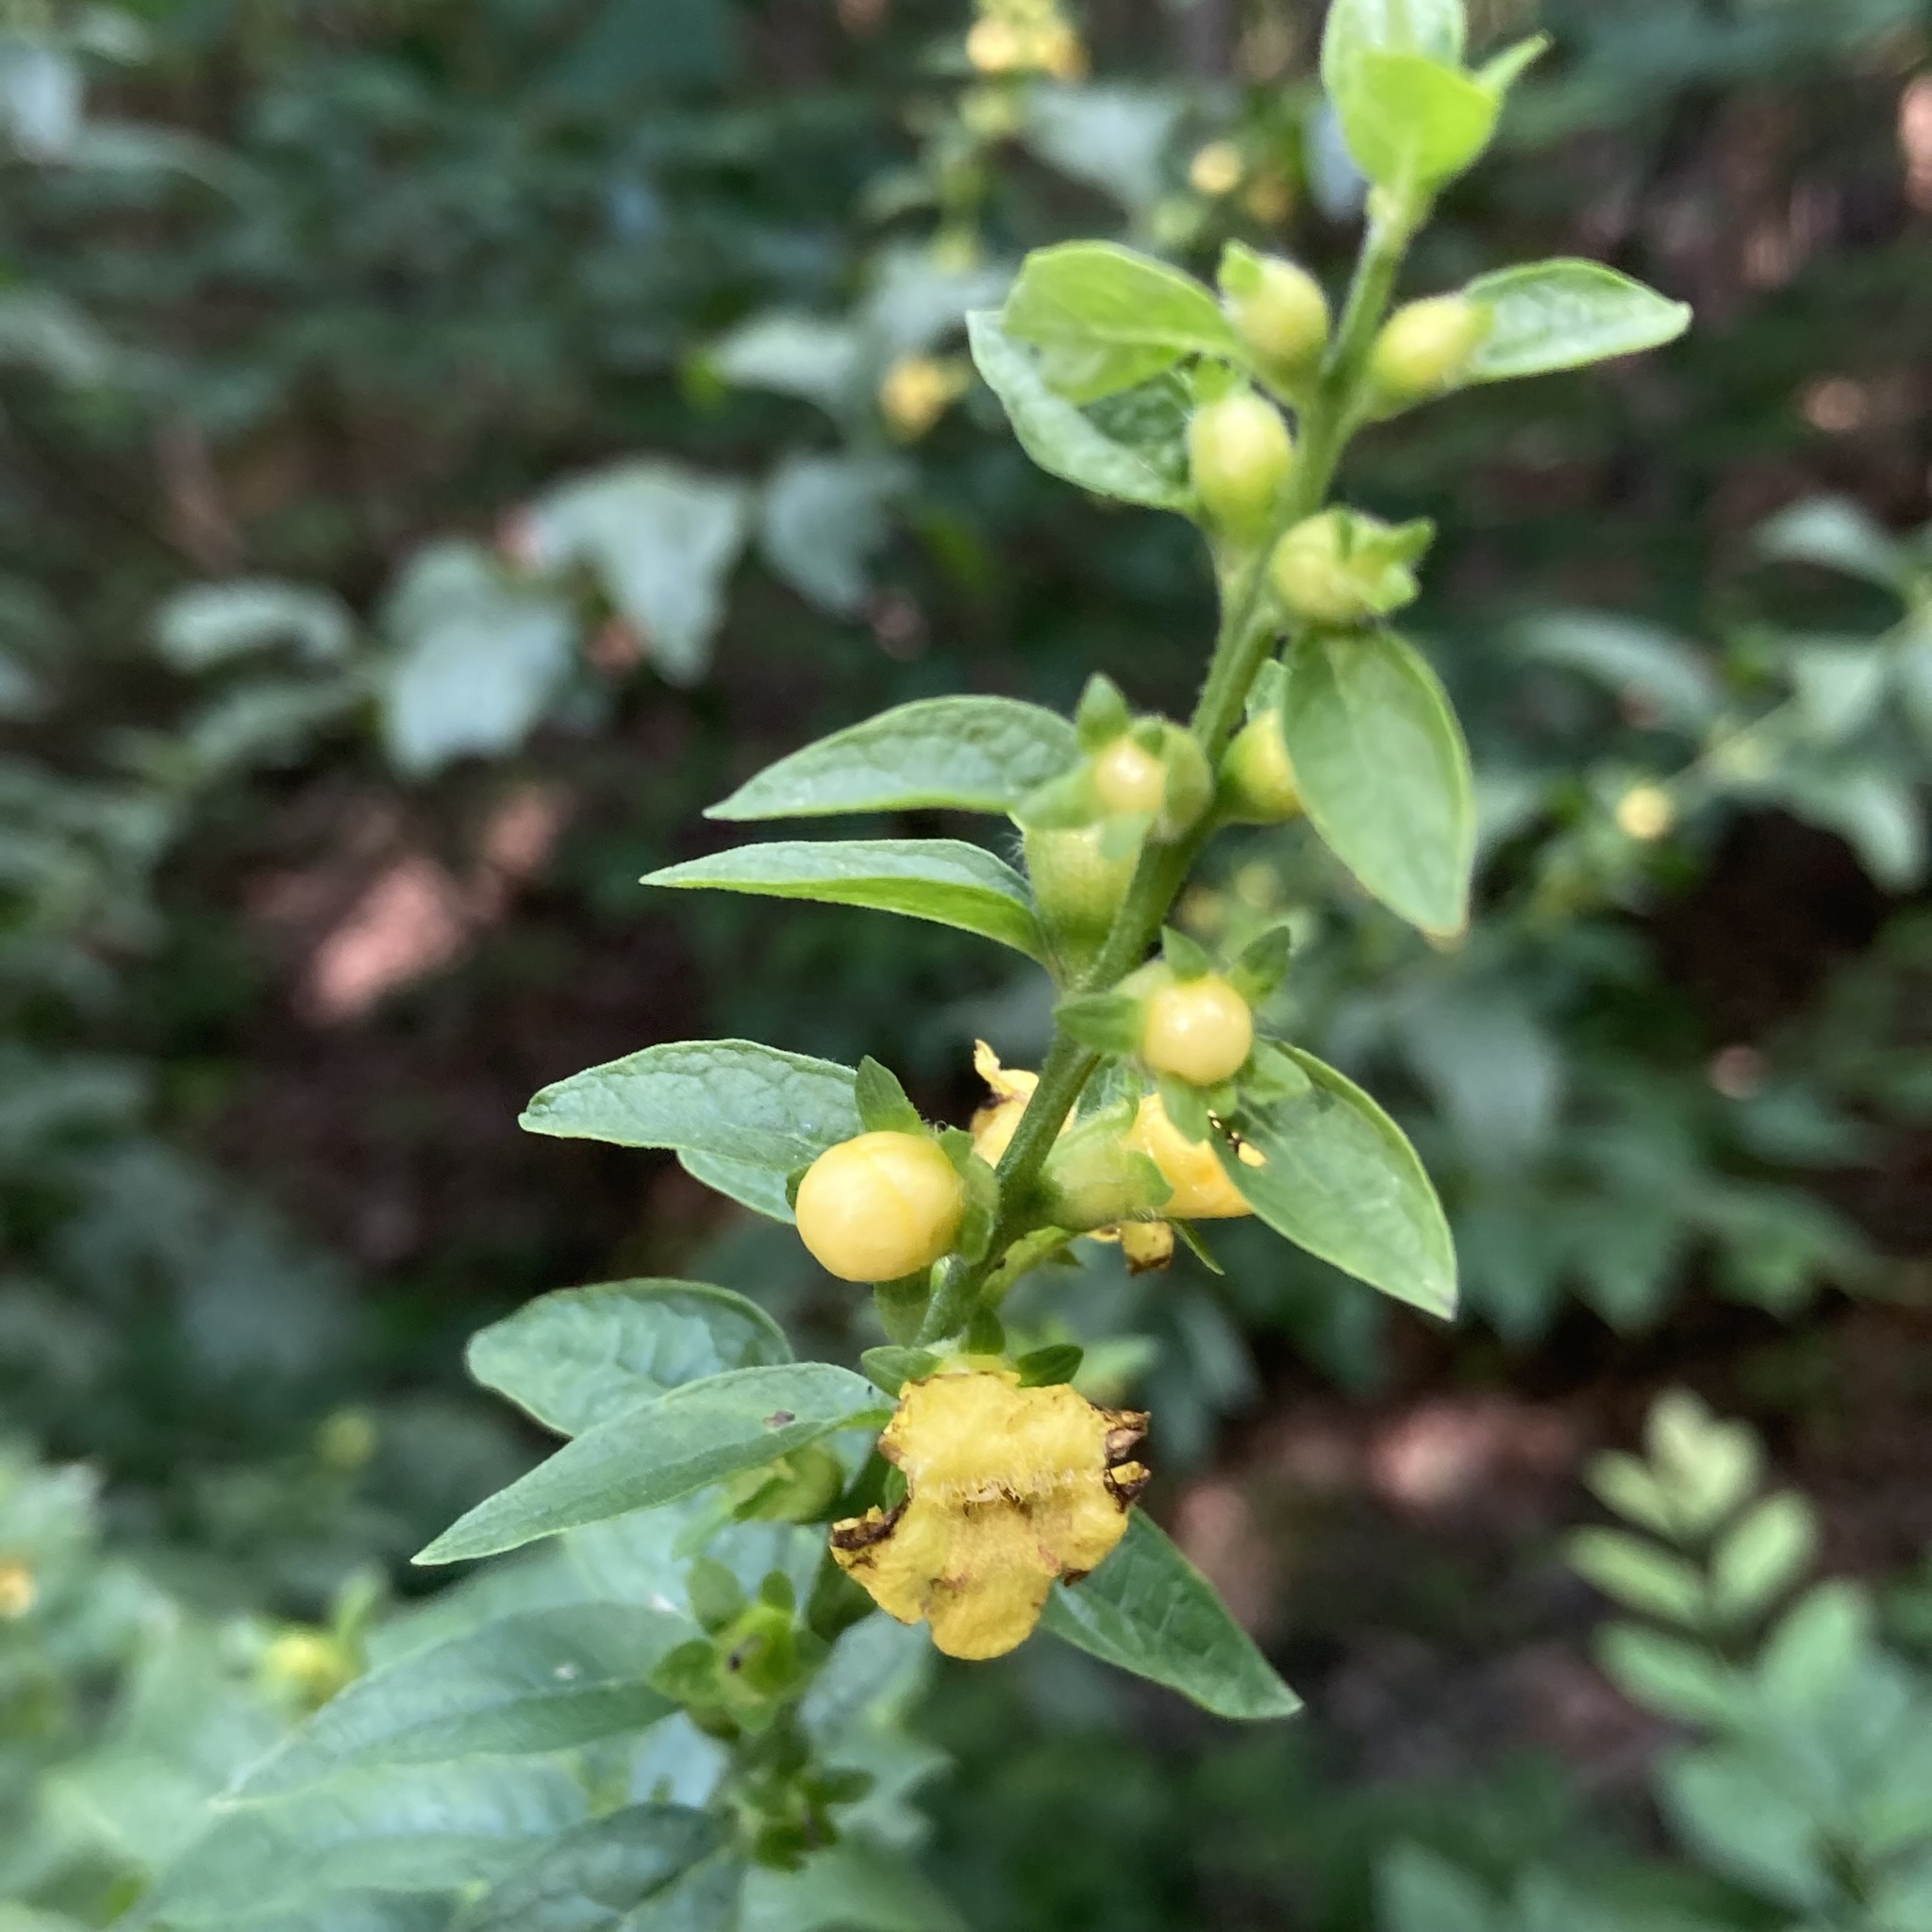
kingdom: Plantae
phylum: Tracheophyta
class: Magnoliopsida
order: Lamiales
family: Orobanchaceae
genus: Dasistoma
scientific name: Dasistoma macrophyllum
